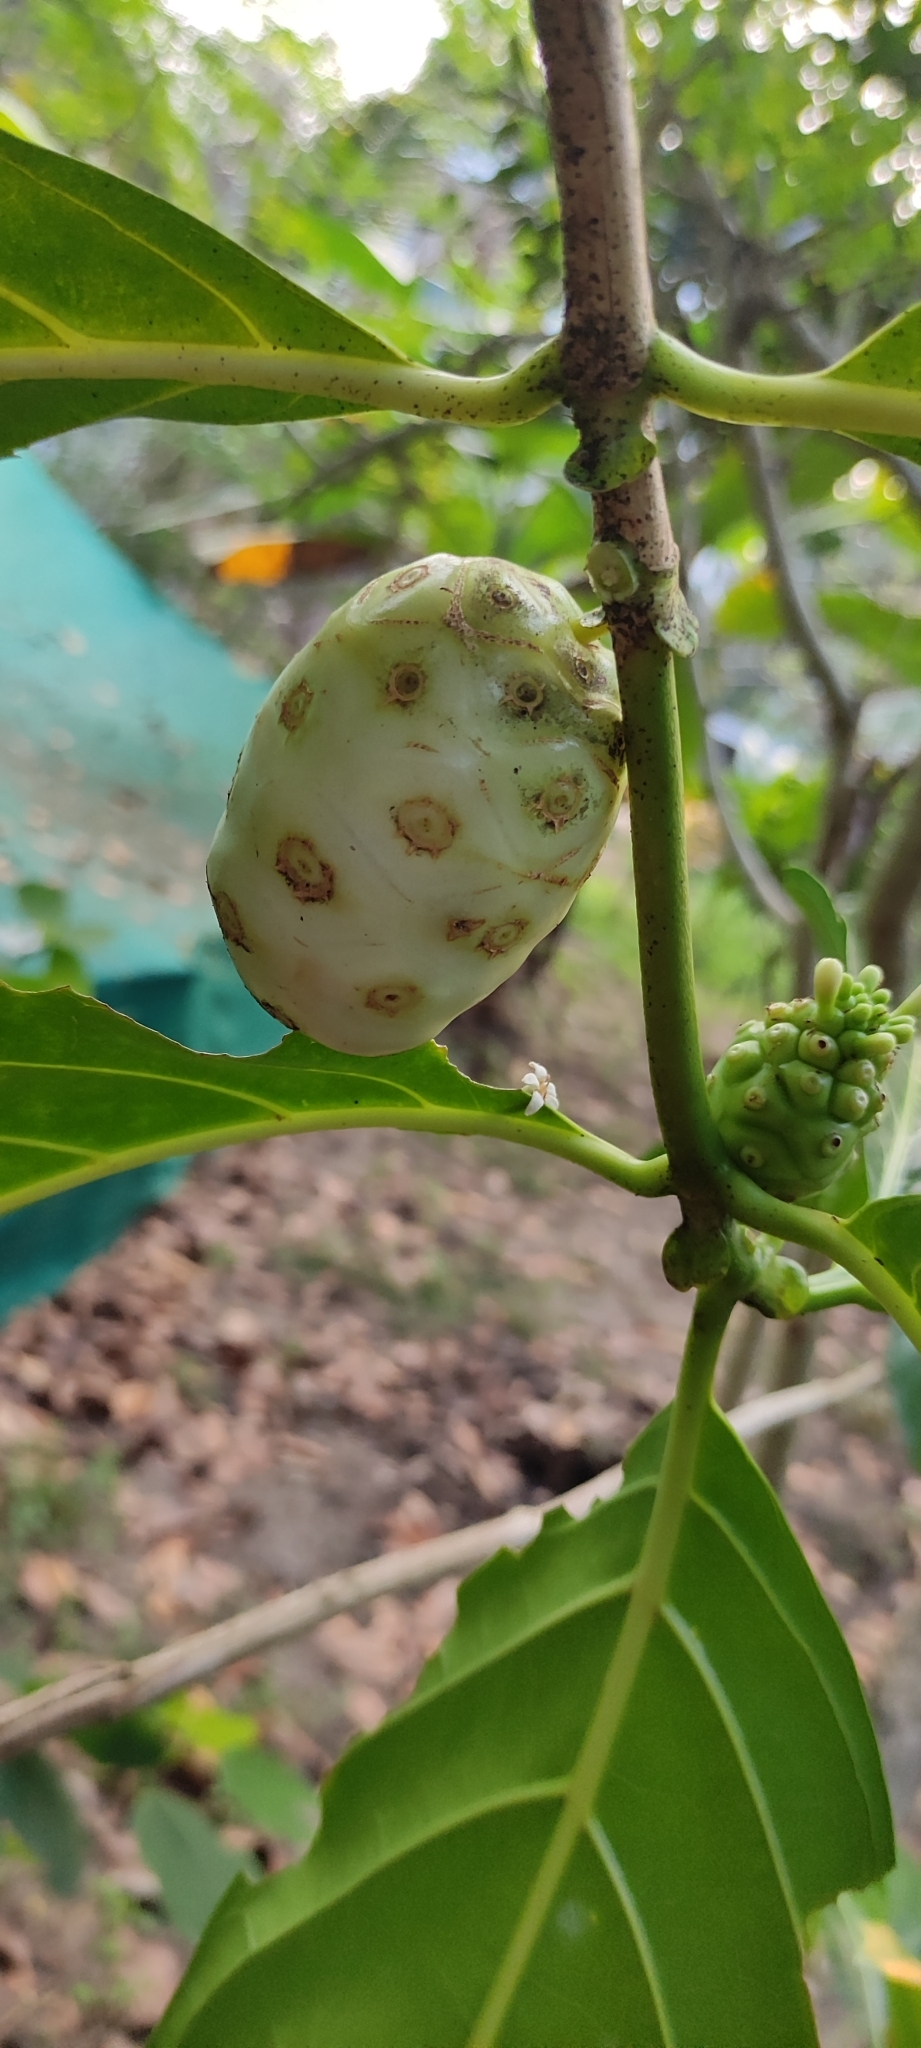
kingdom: Plantae
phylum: Tracheophyta
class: Magnoliopsida
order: Gentianales
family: Rubiaceae
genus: Morinda
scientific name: Morinda citrifolia
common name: Indian-mulberry
